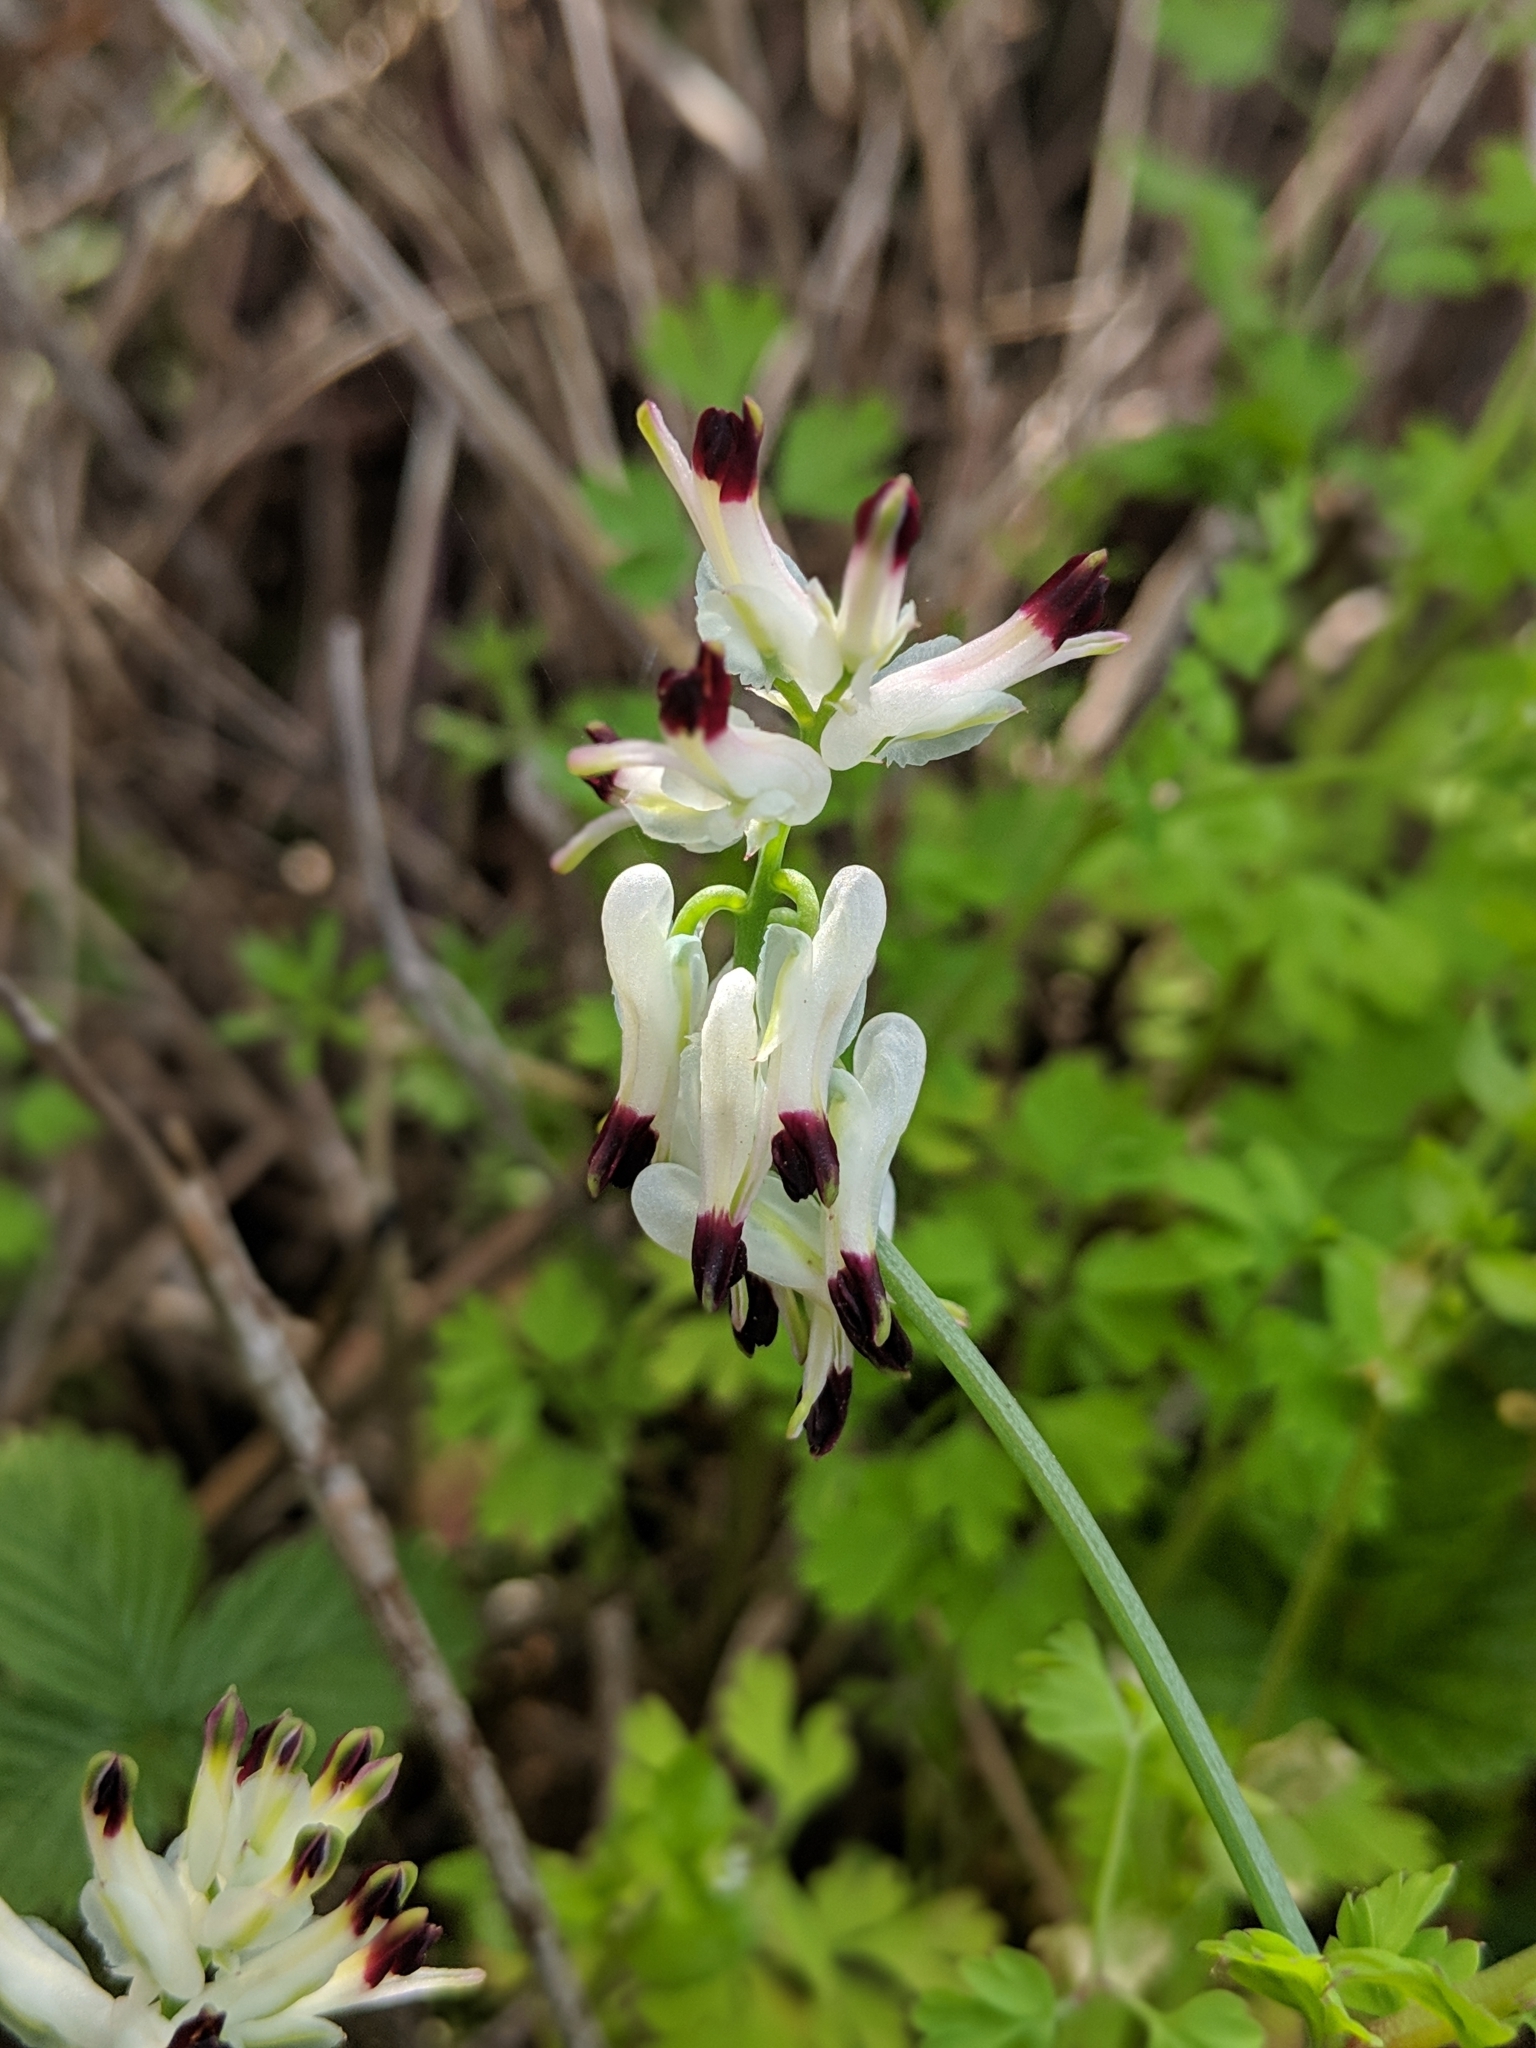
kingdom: Plantae
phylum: Tracheophyta
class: Magnoliopsida
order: Ranunculales
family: Papaveraceae
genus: Fumaria
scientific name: Fumaria capreolata
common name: White ramping-fumitory
